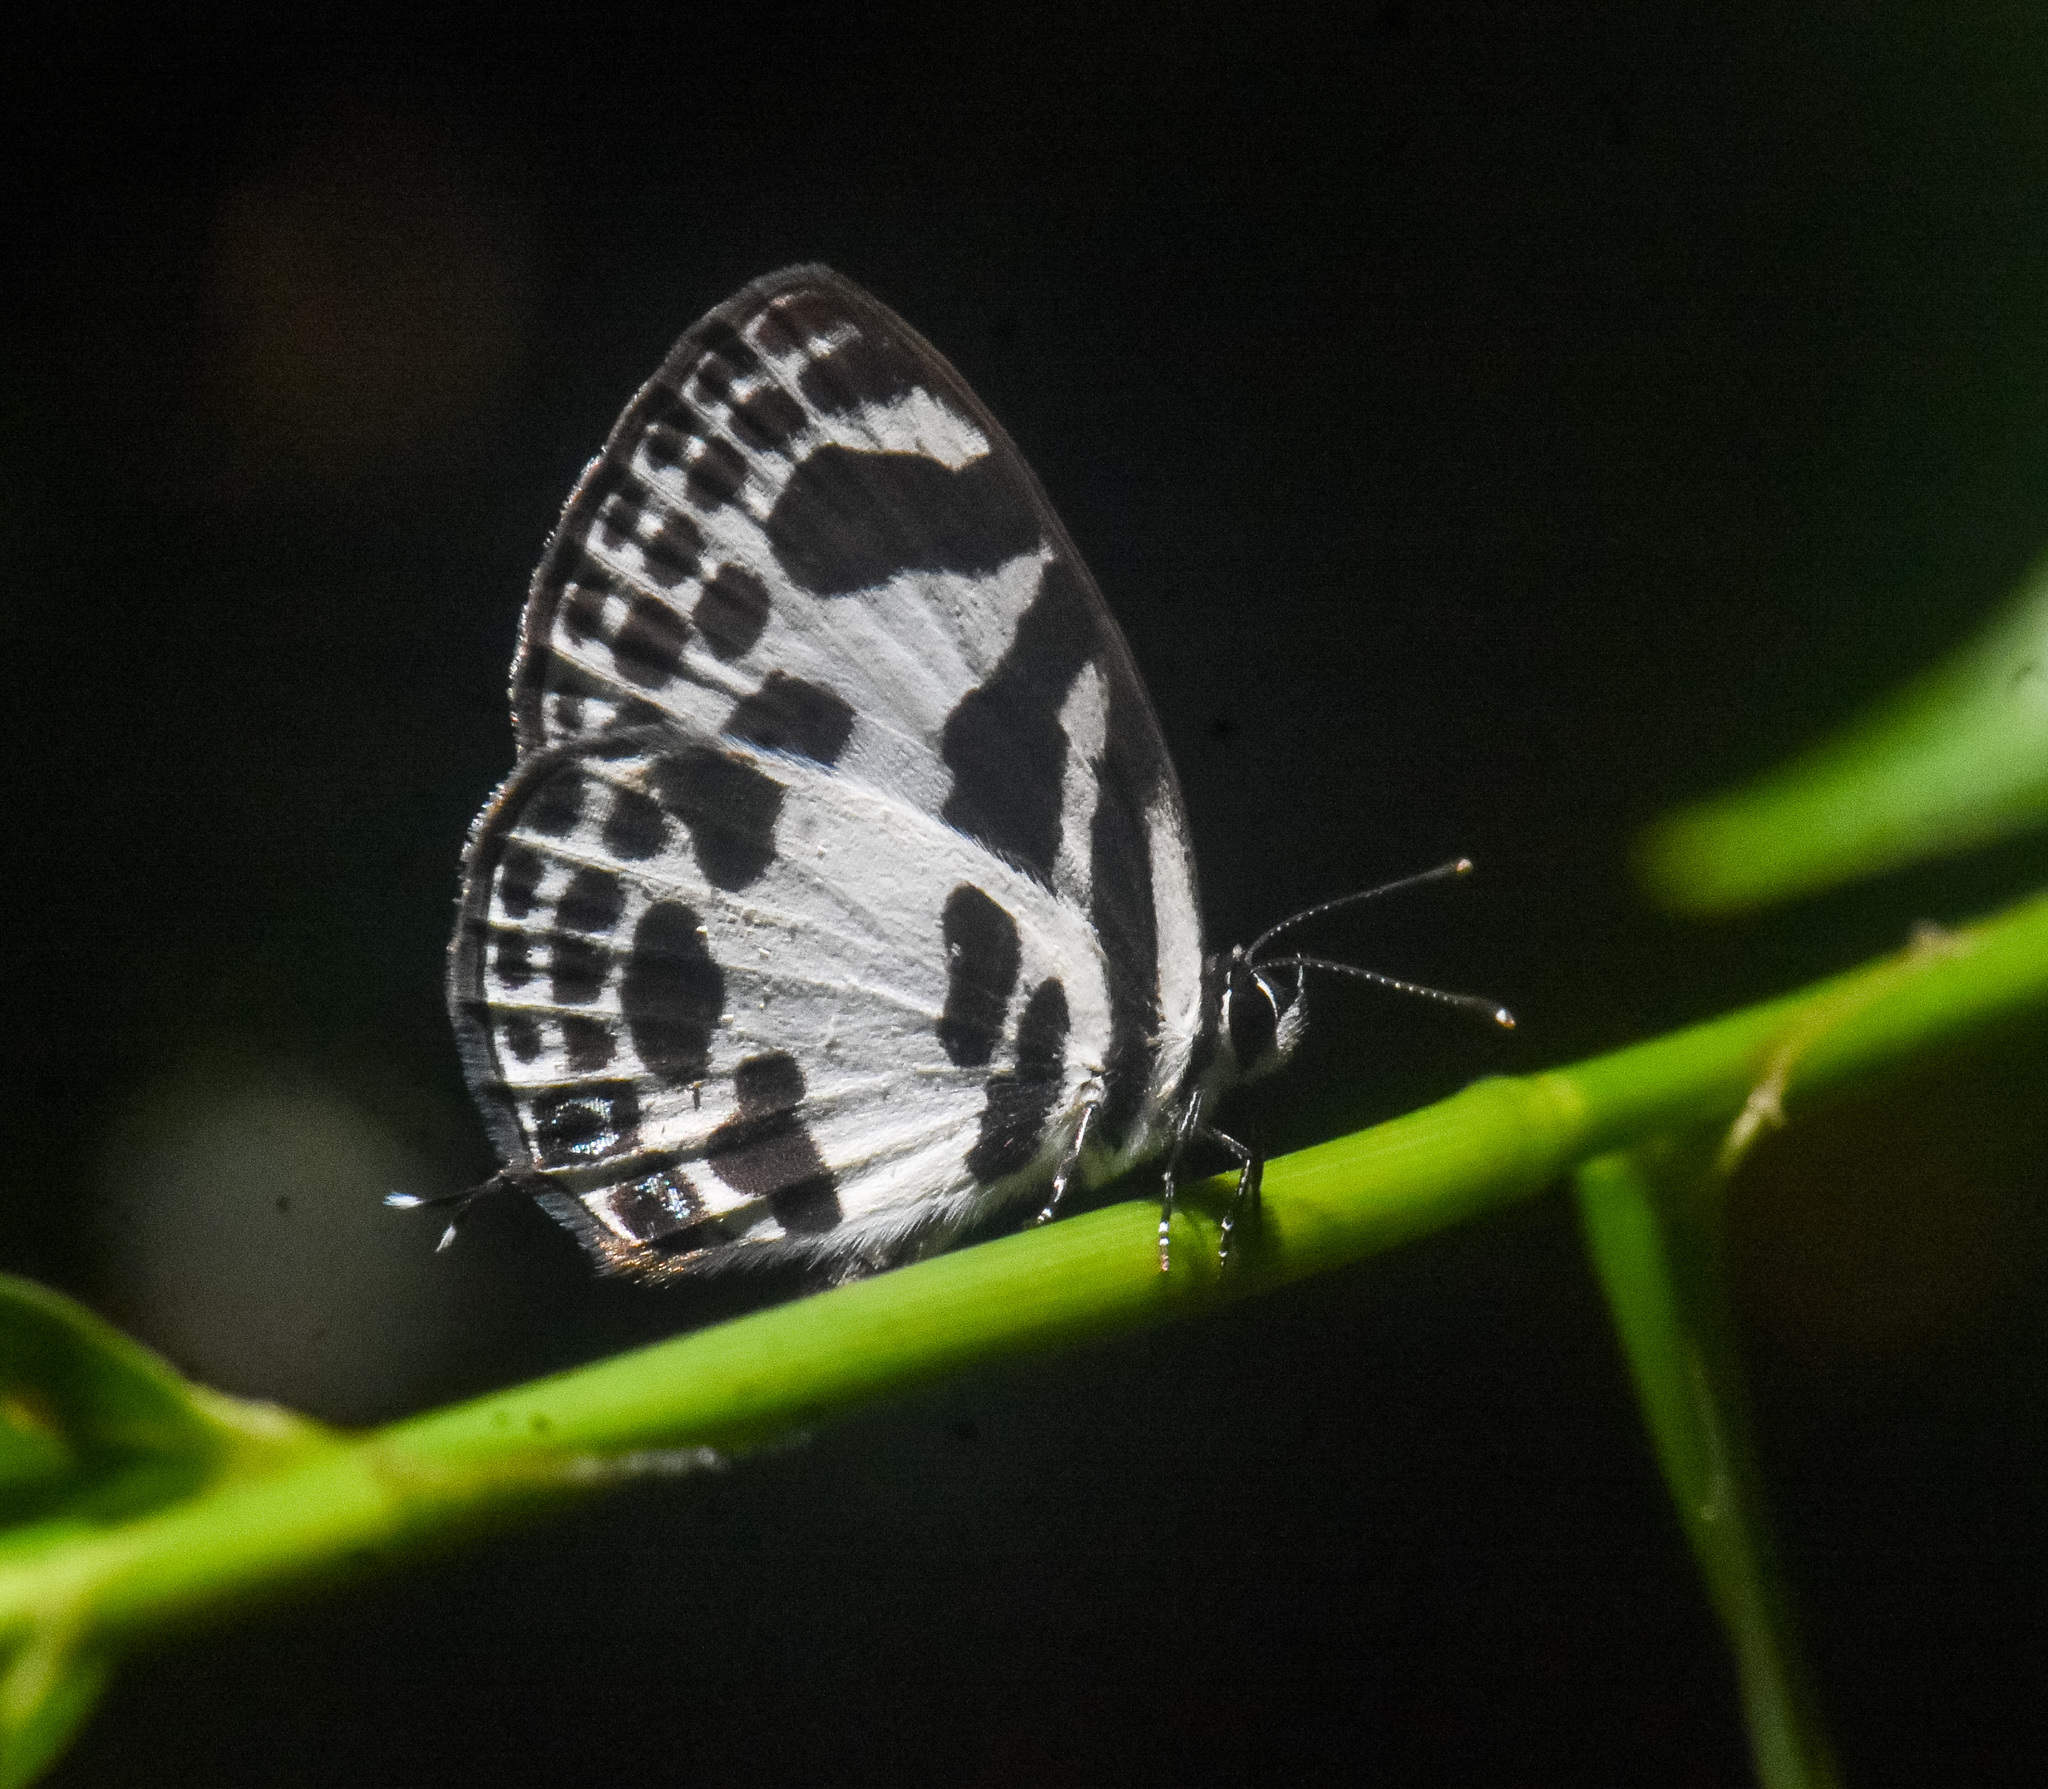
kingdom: Animalia
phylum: Arthropoda
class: Insecta
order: Lepidoptera
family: Lycaenidae
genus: Discolampa
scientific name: Discolampa ethion
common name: Banded blue pierrot
